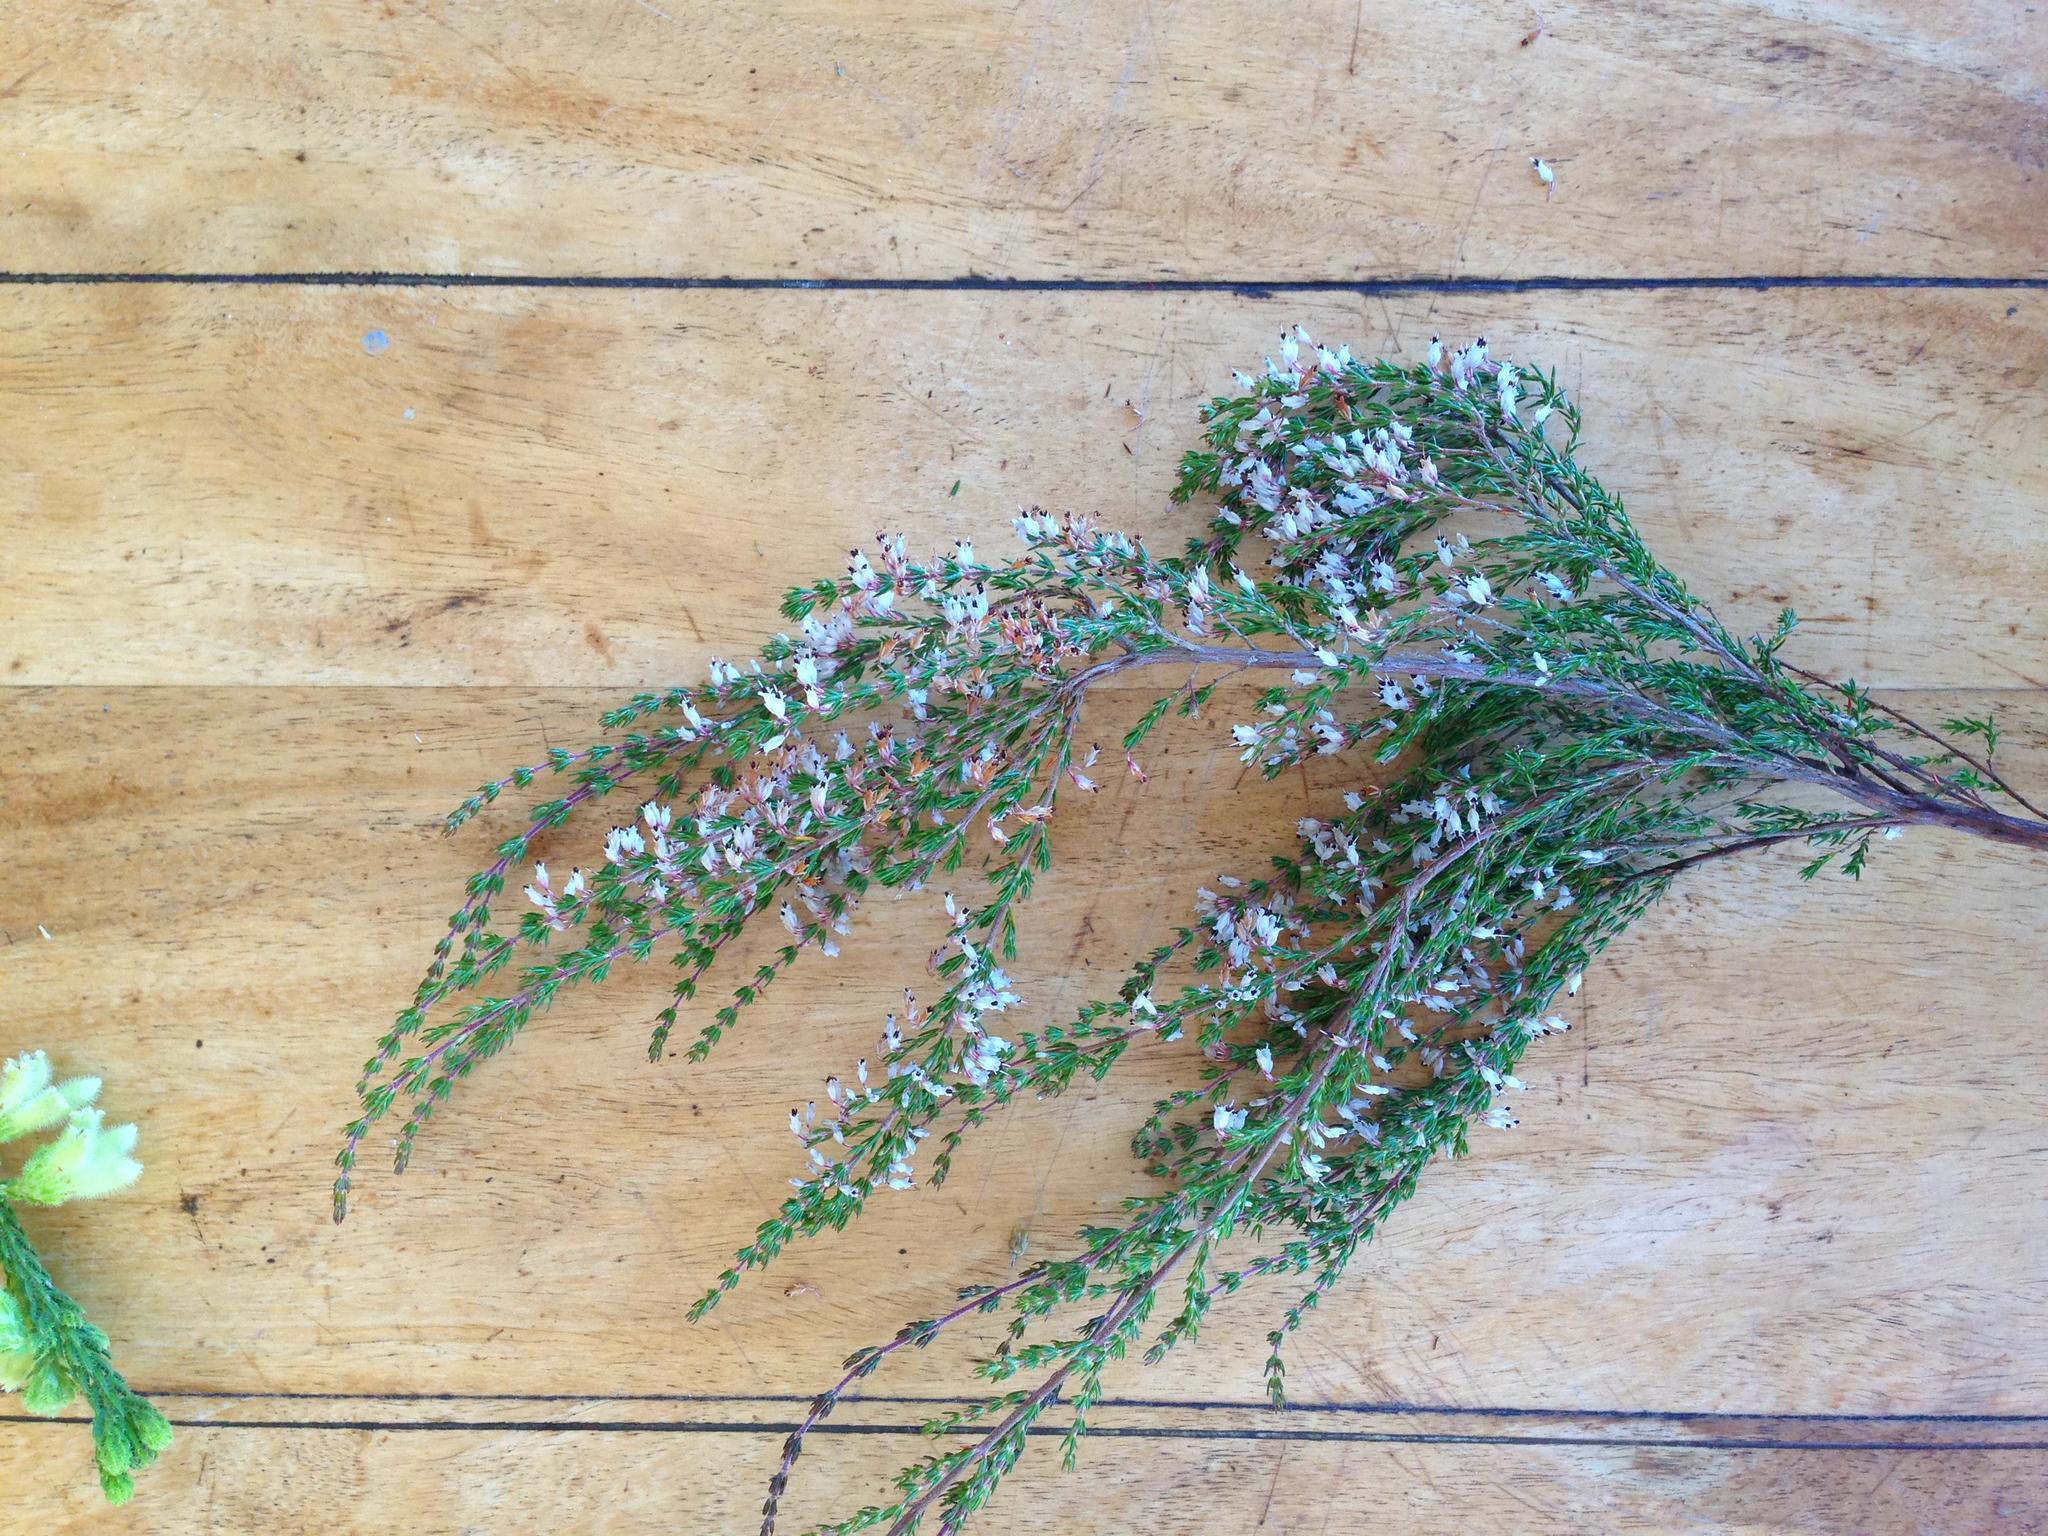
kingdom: Plantae
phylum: Tracheophyta
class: Magnoliopsida
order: Ericales
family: Ericaceae
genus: Erica
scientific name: Erica fuscescens
